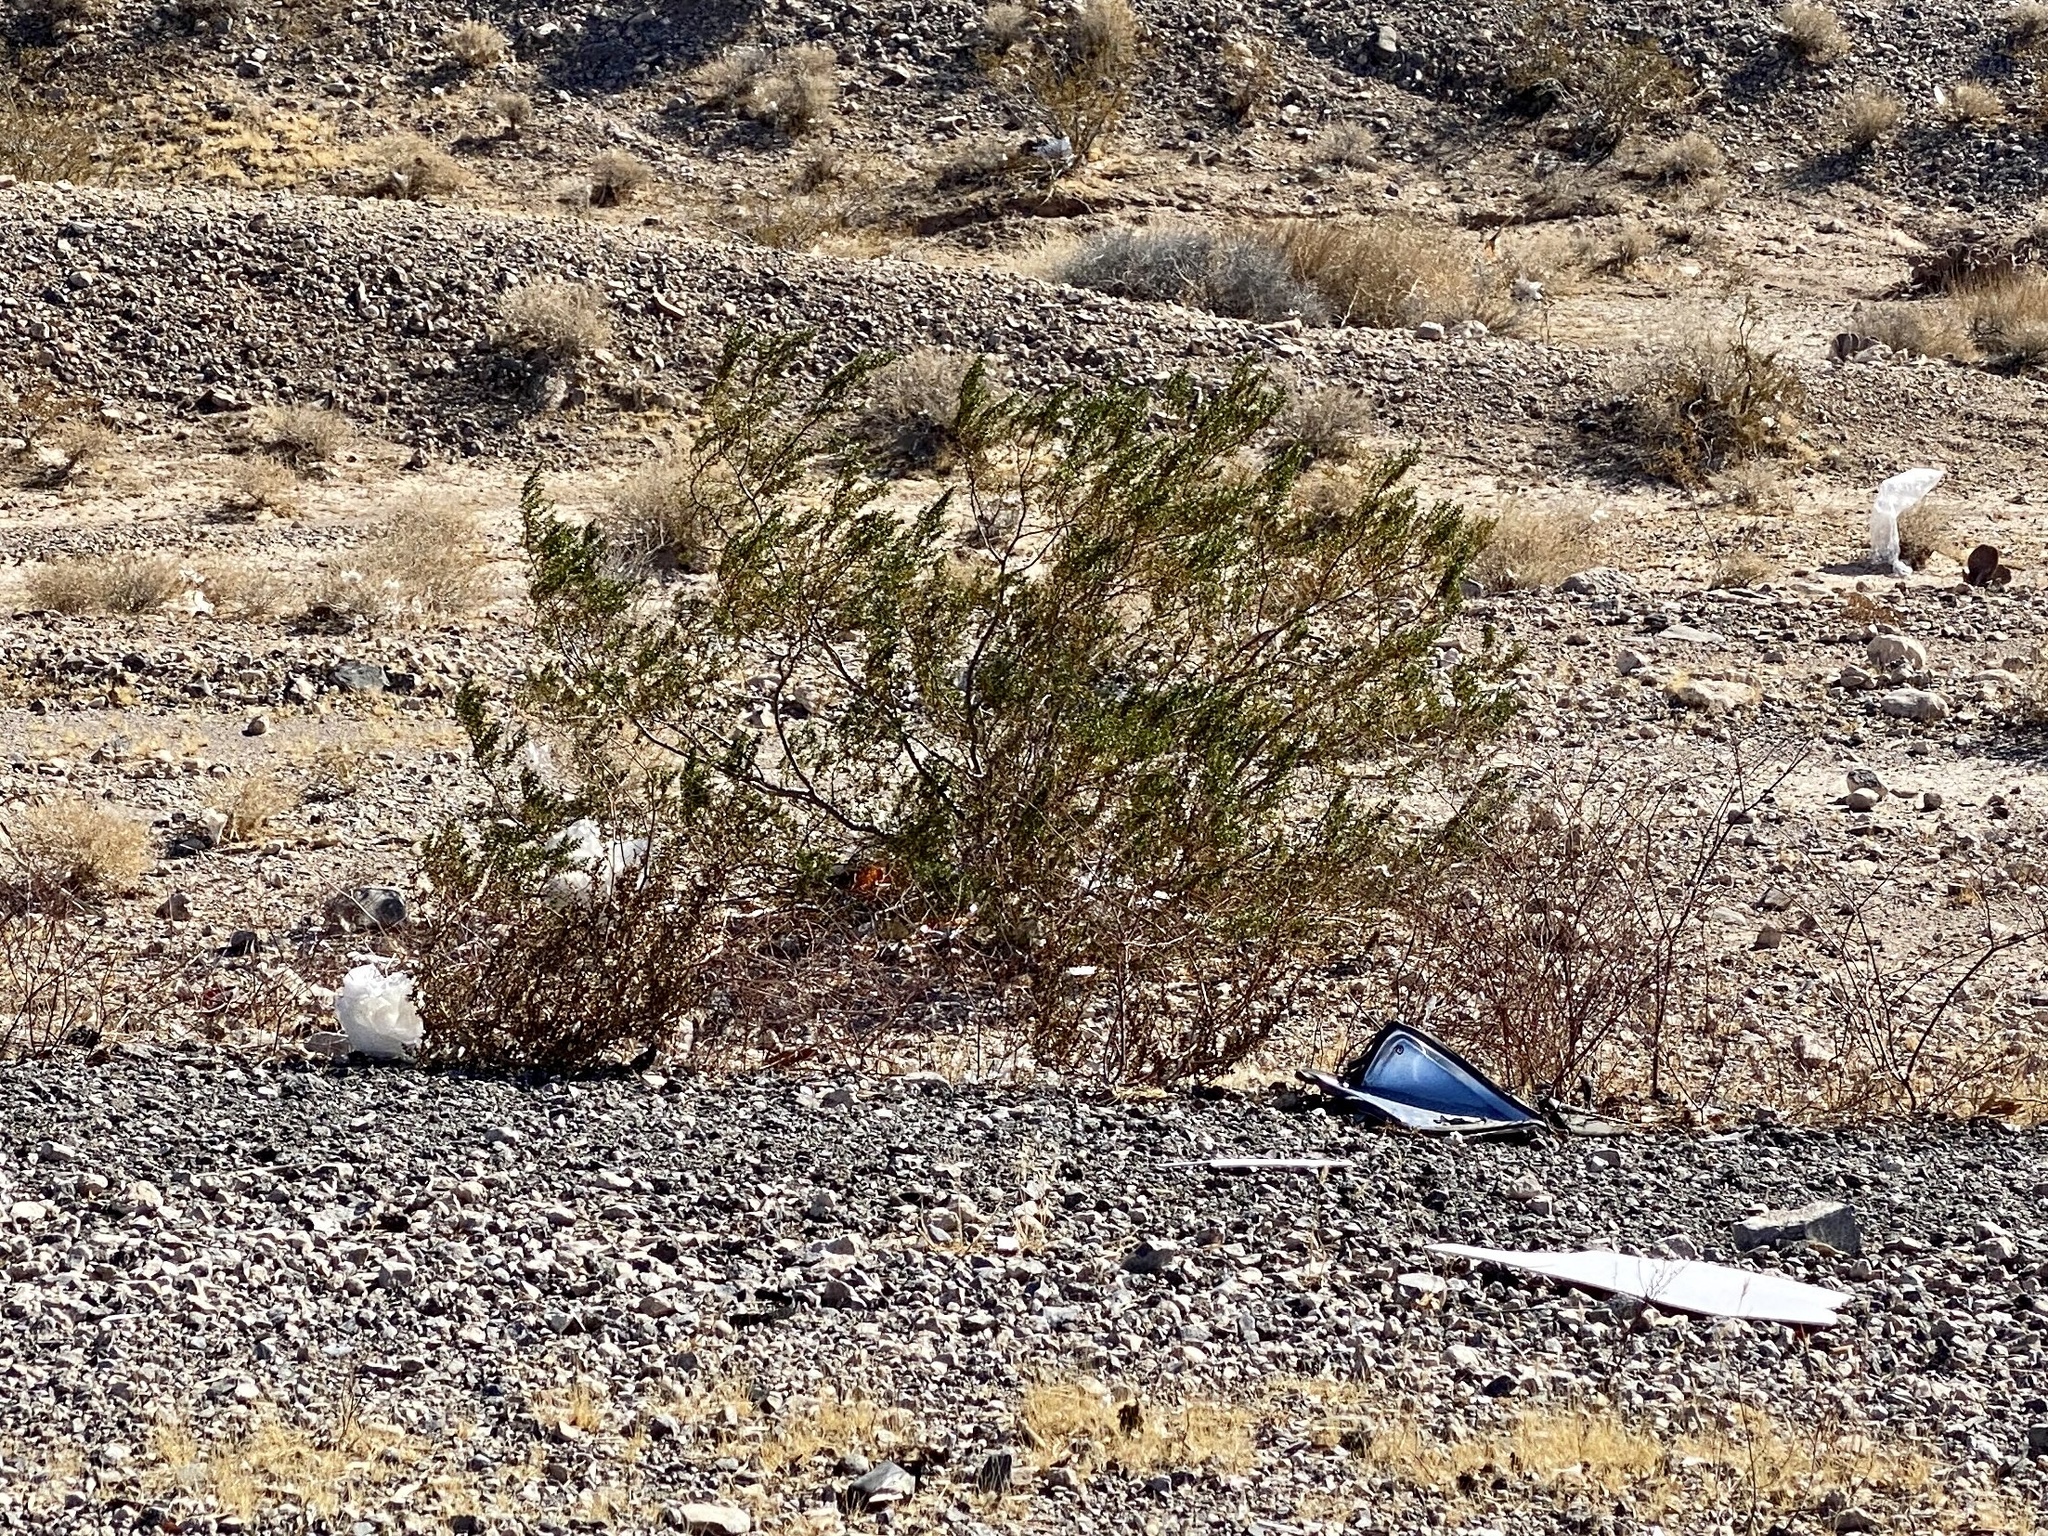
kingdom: Plantae
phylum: Tracheophyta
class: Magnoliopsida
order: Zygophyllales
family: Zygophyllaceae
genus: Larrea
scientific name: Larrea tridentata
